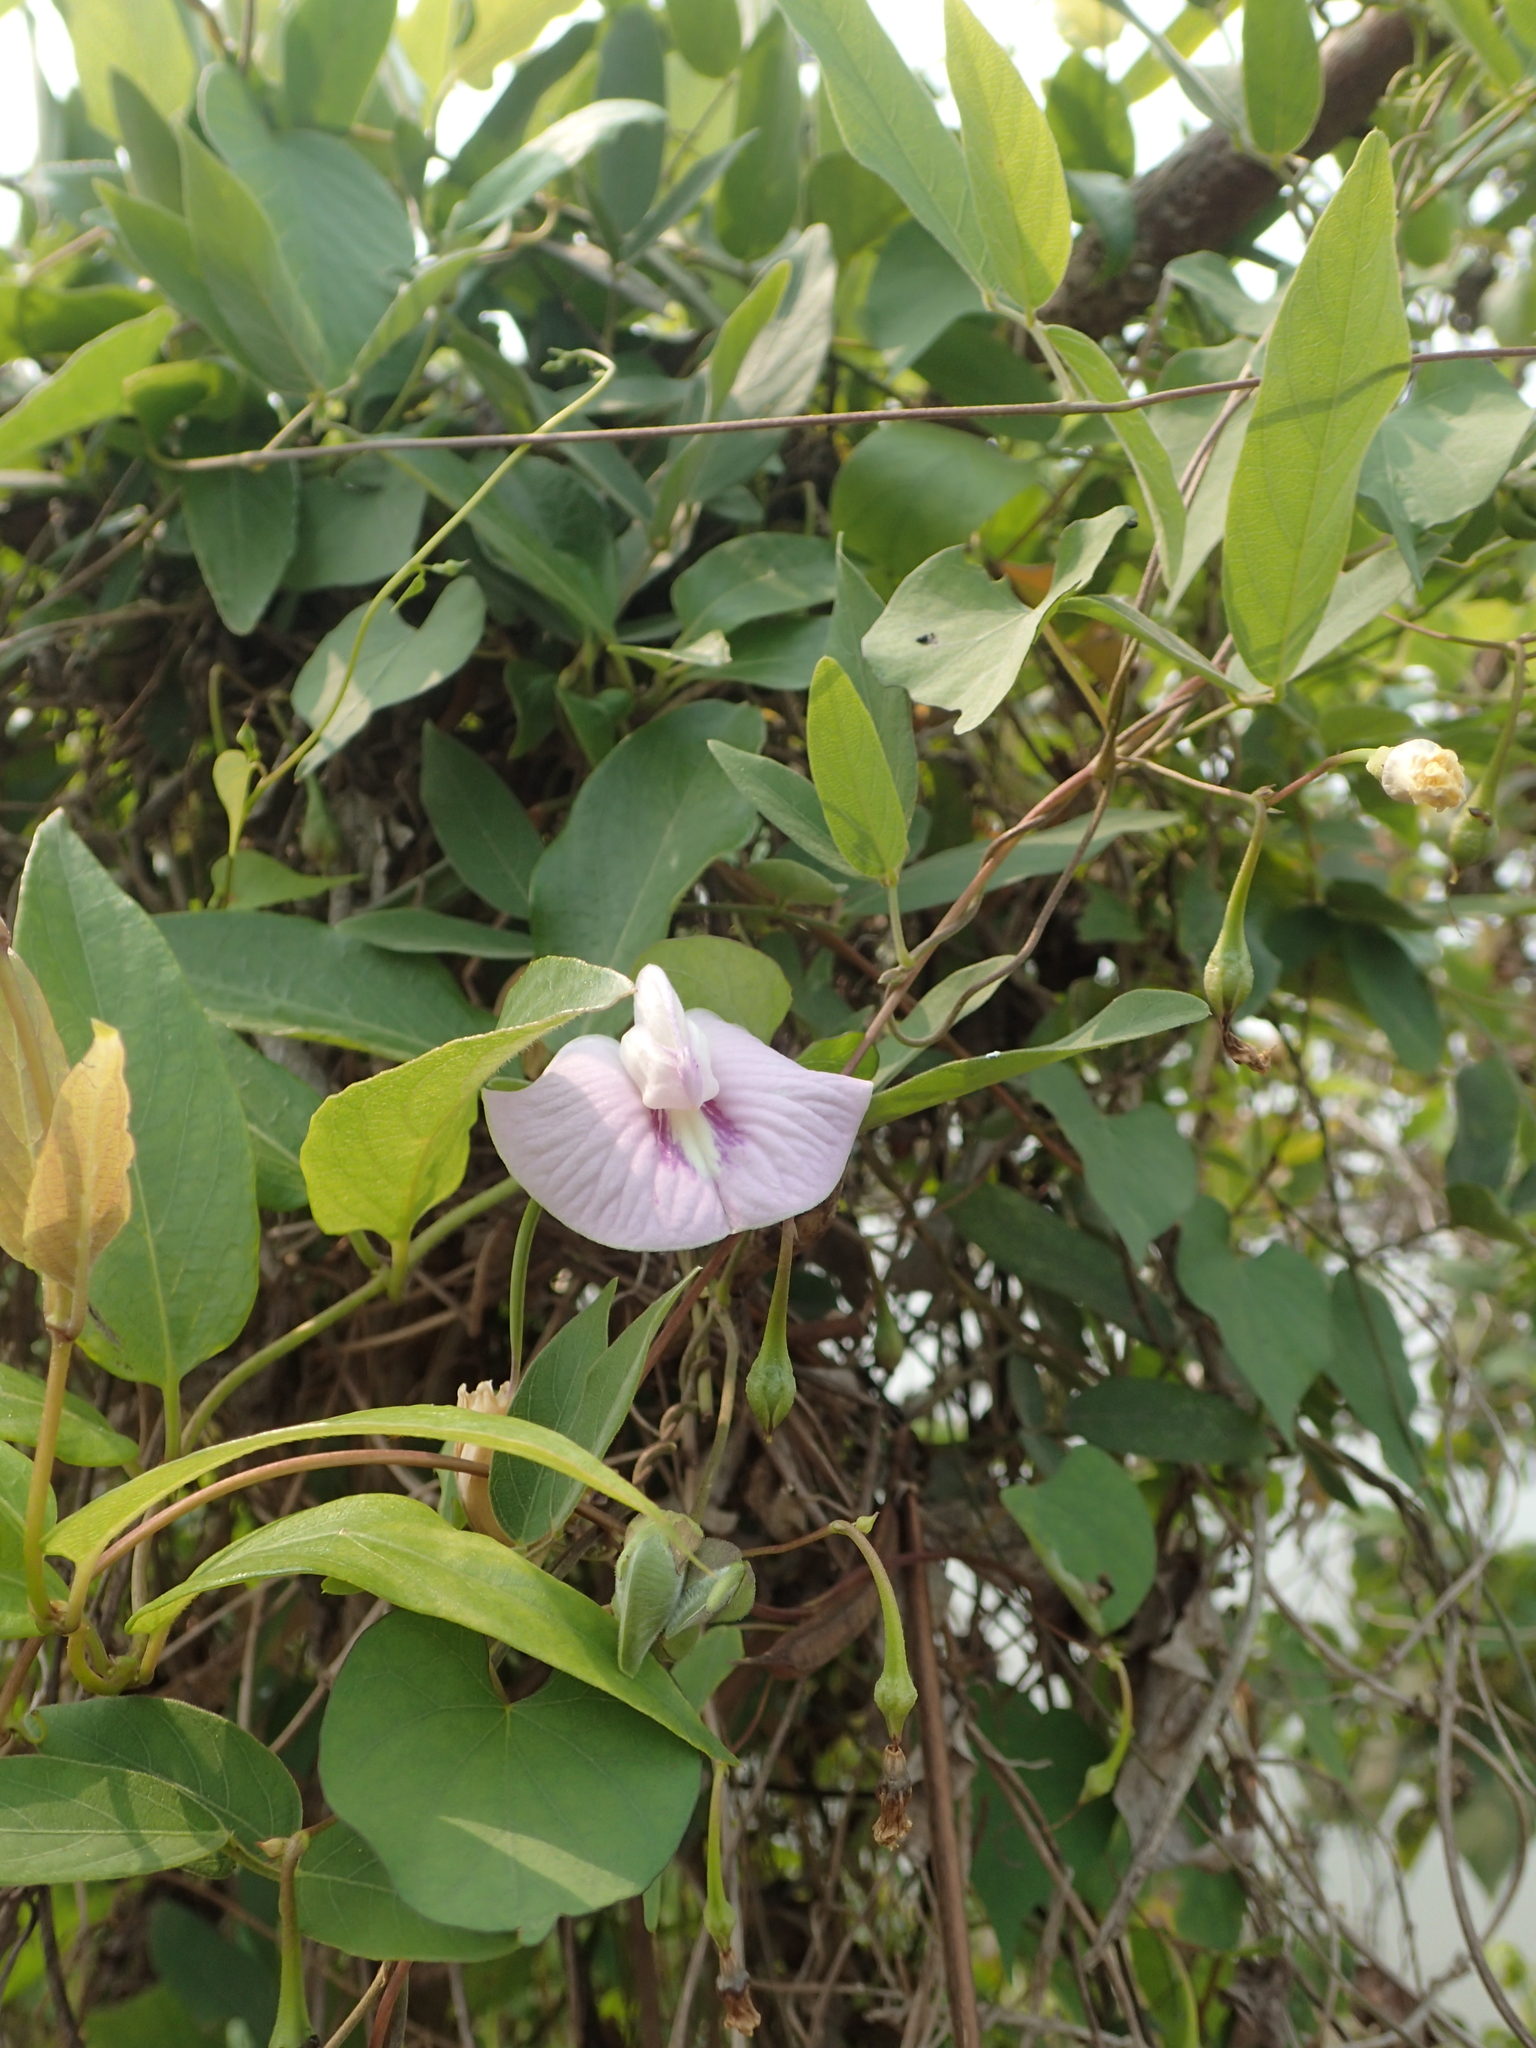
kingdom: Plantae
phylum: Tracheophyta
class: Magnoliopsida
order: Fabales
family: Fabaceae
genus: Centrosema
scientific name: Centrosema pubescens
